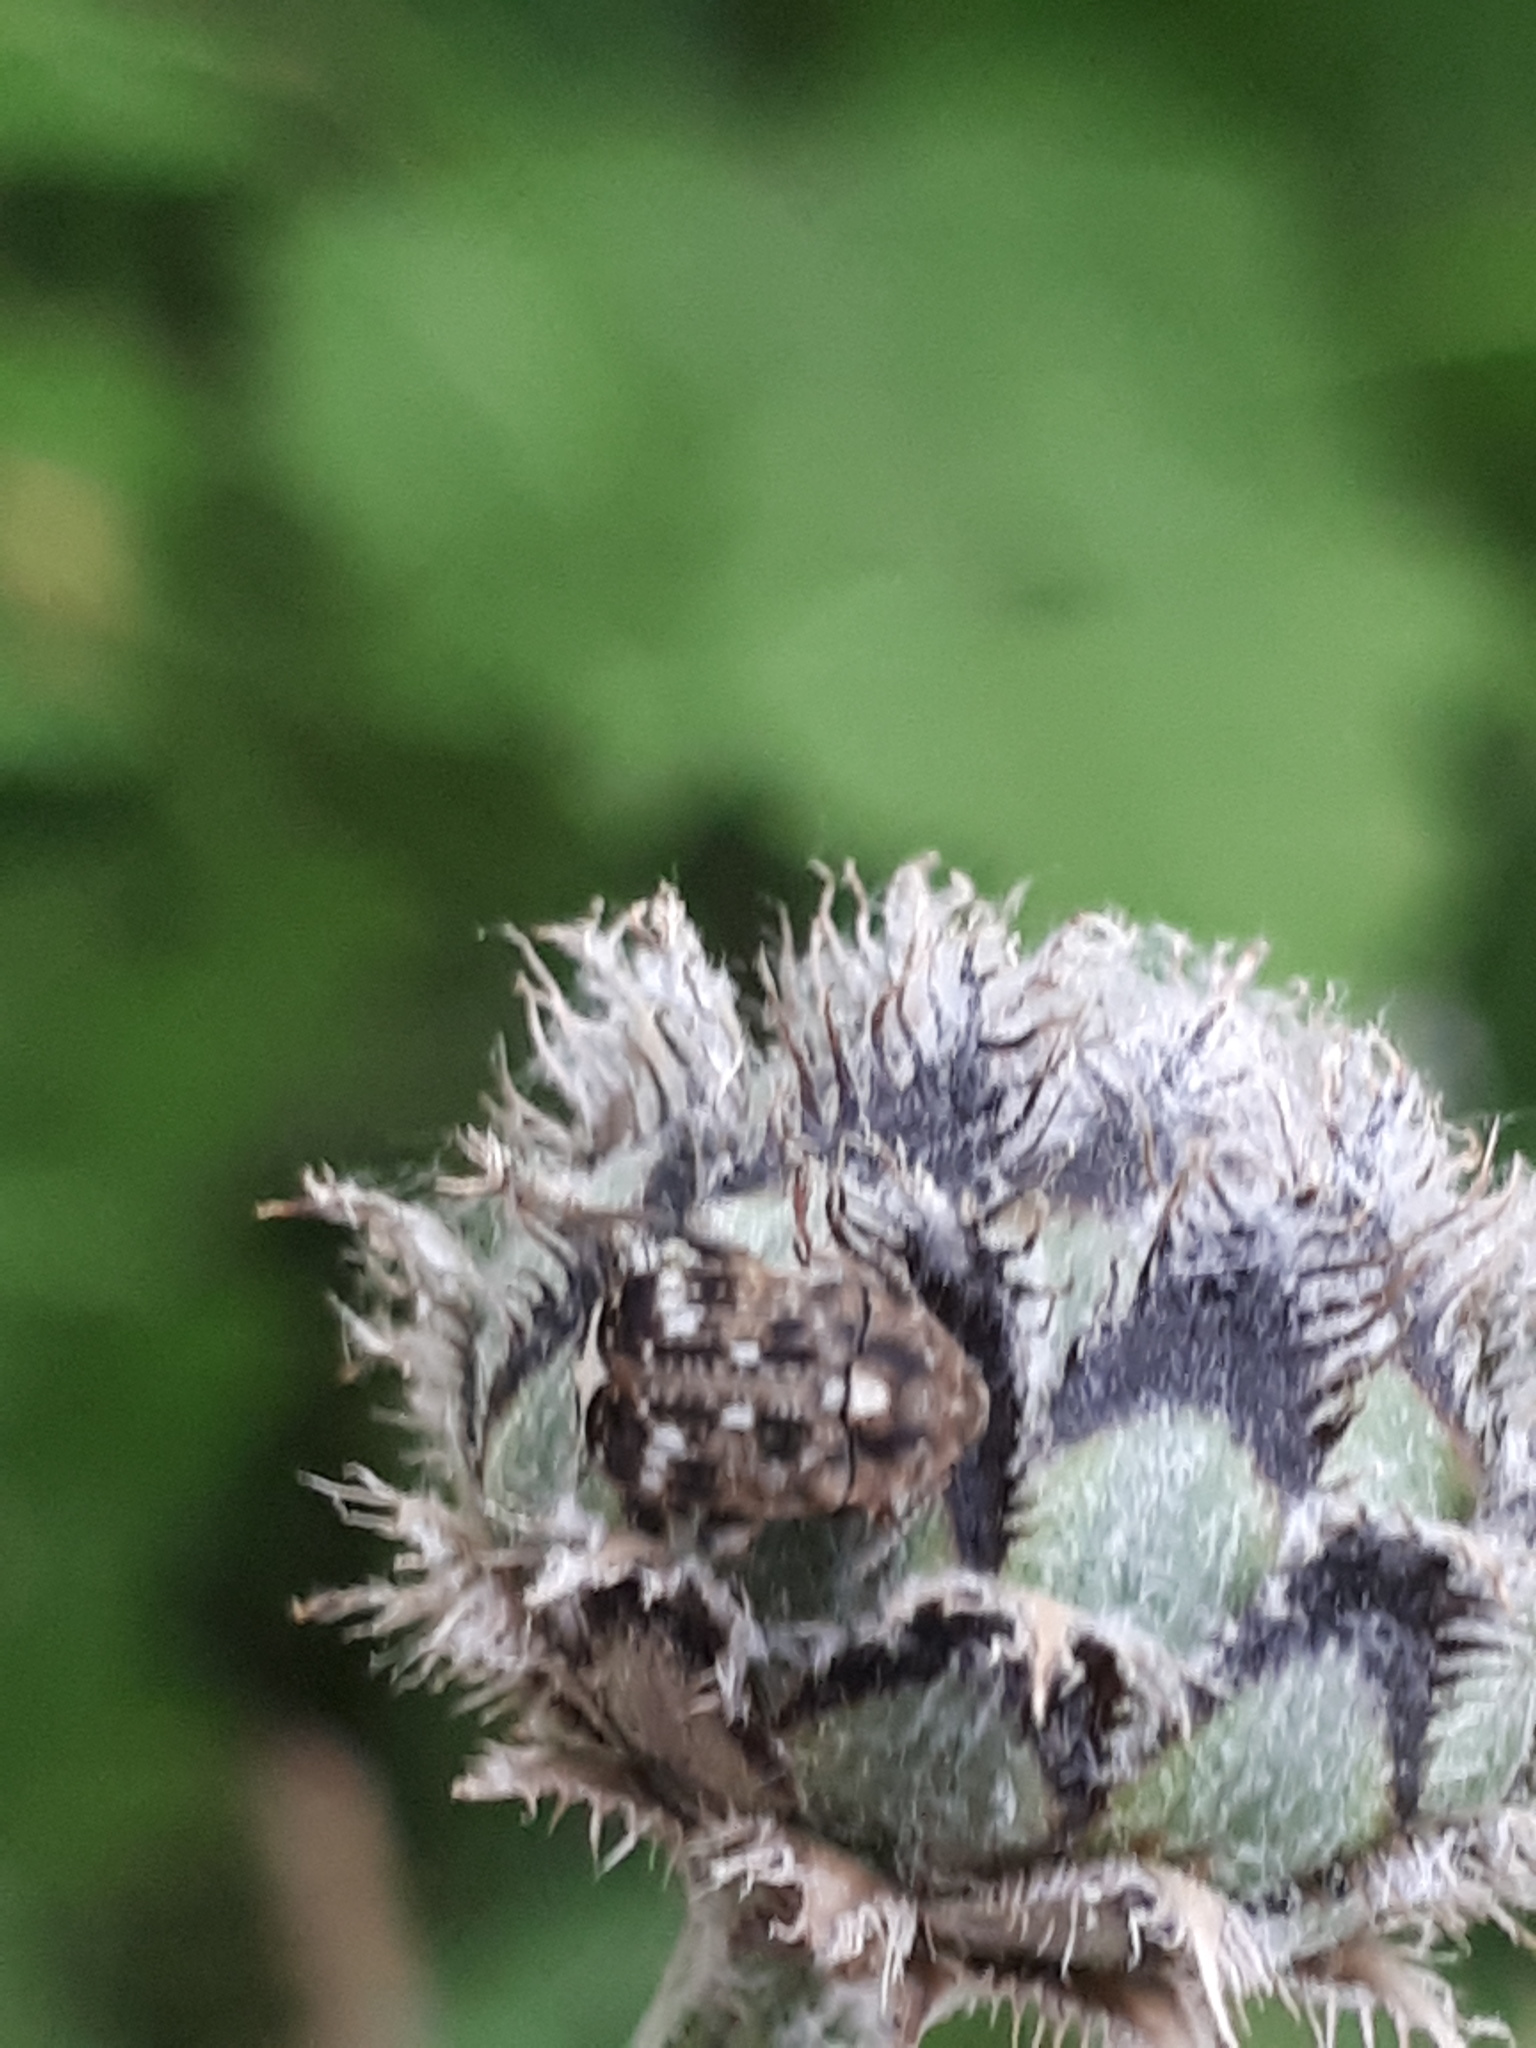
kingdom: Animalia
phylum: Arthropoda
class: Insecta
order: Coleoptera
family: Chrysomelidae
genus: Bruchus
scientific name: Bruchus pisorum
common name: Pea weevil
